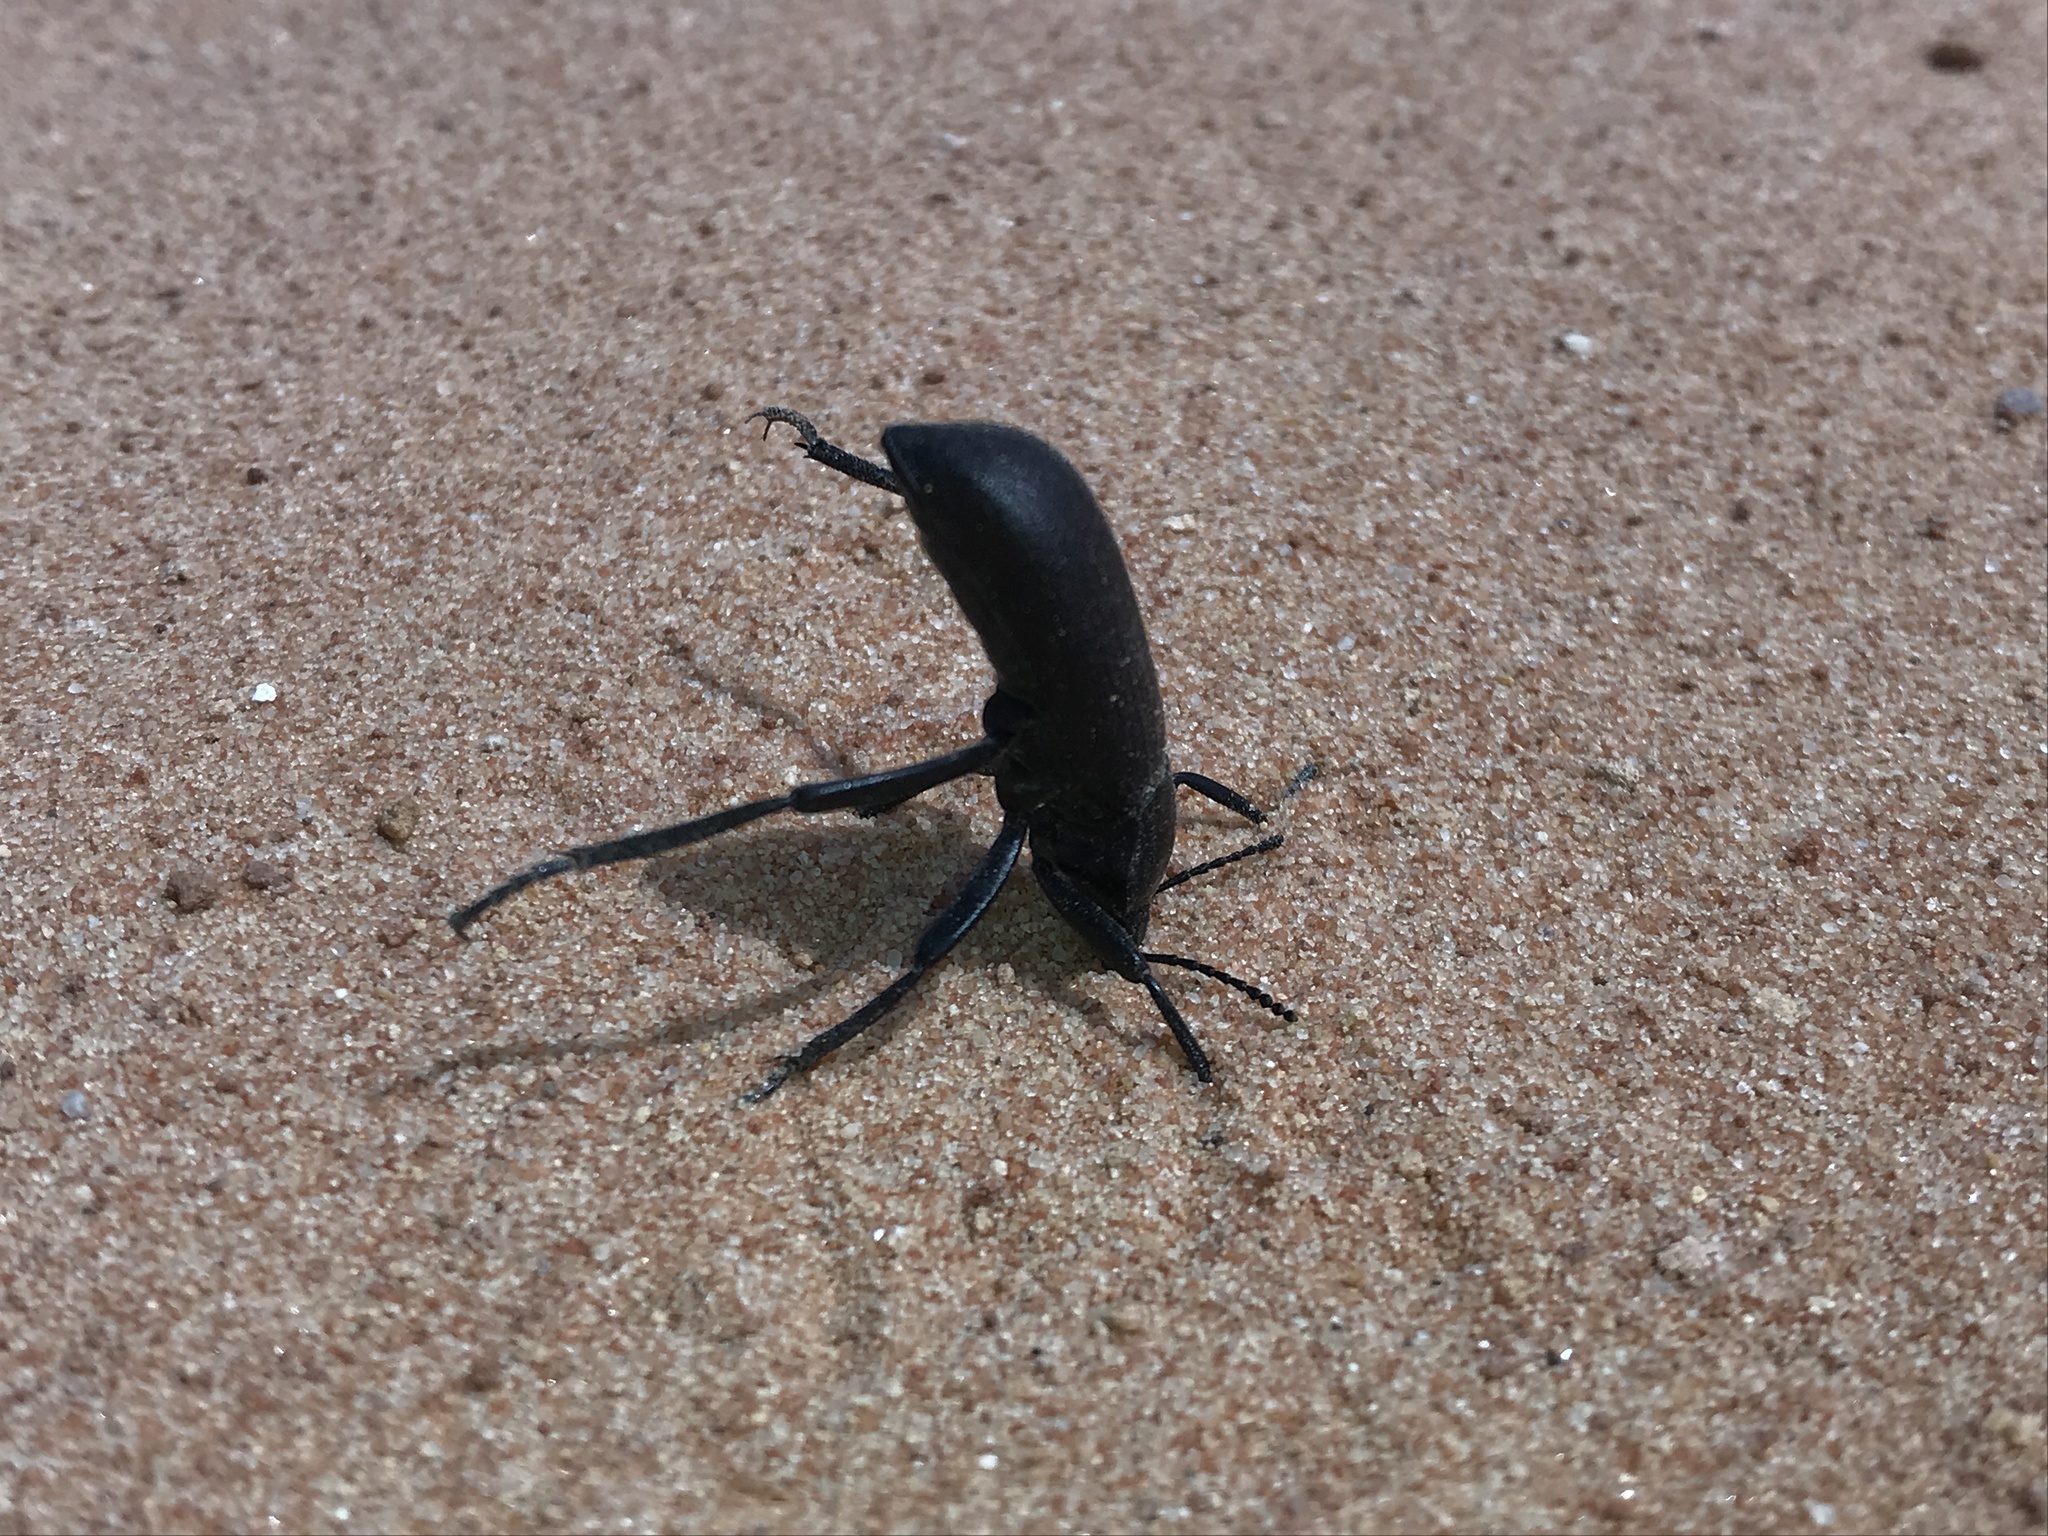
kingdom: Animalia
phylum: Arthropoda
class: Insecta
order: Coleoptera
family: Tenebrionidae
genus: Eleodes
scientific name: Eleodes obscura
